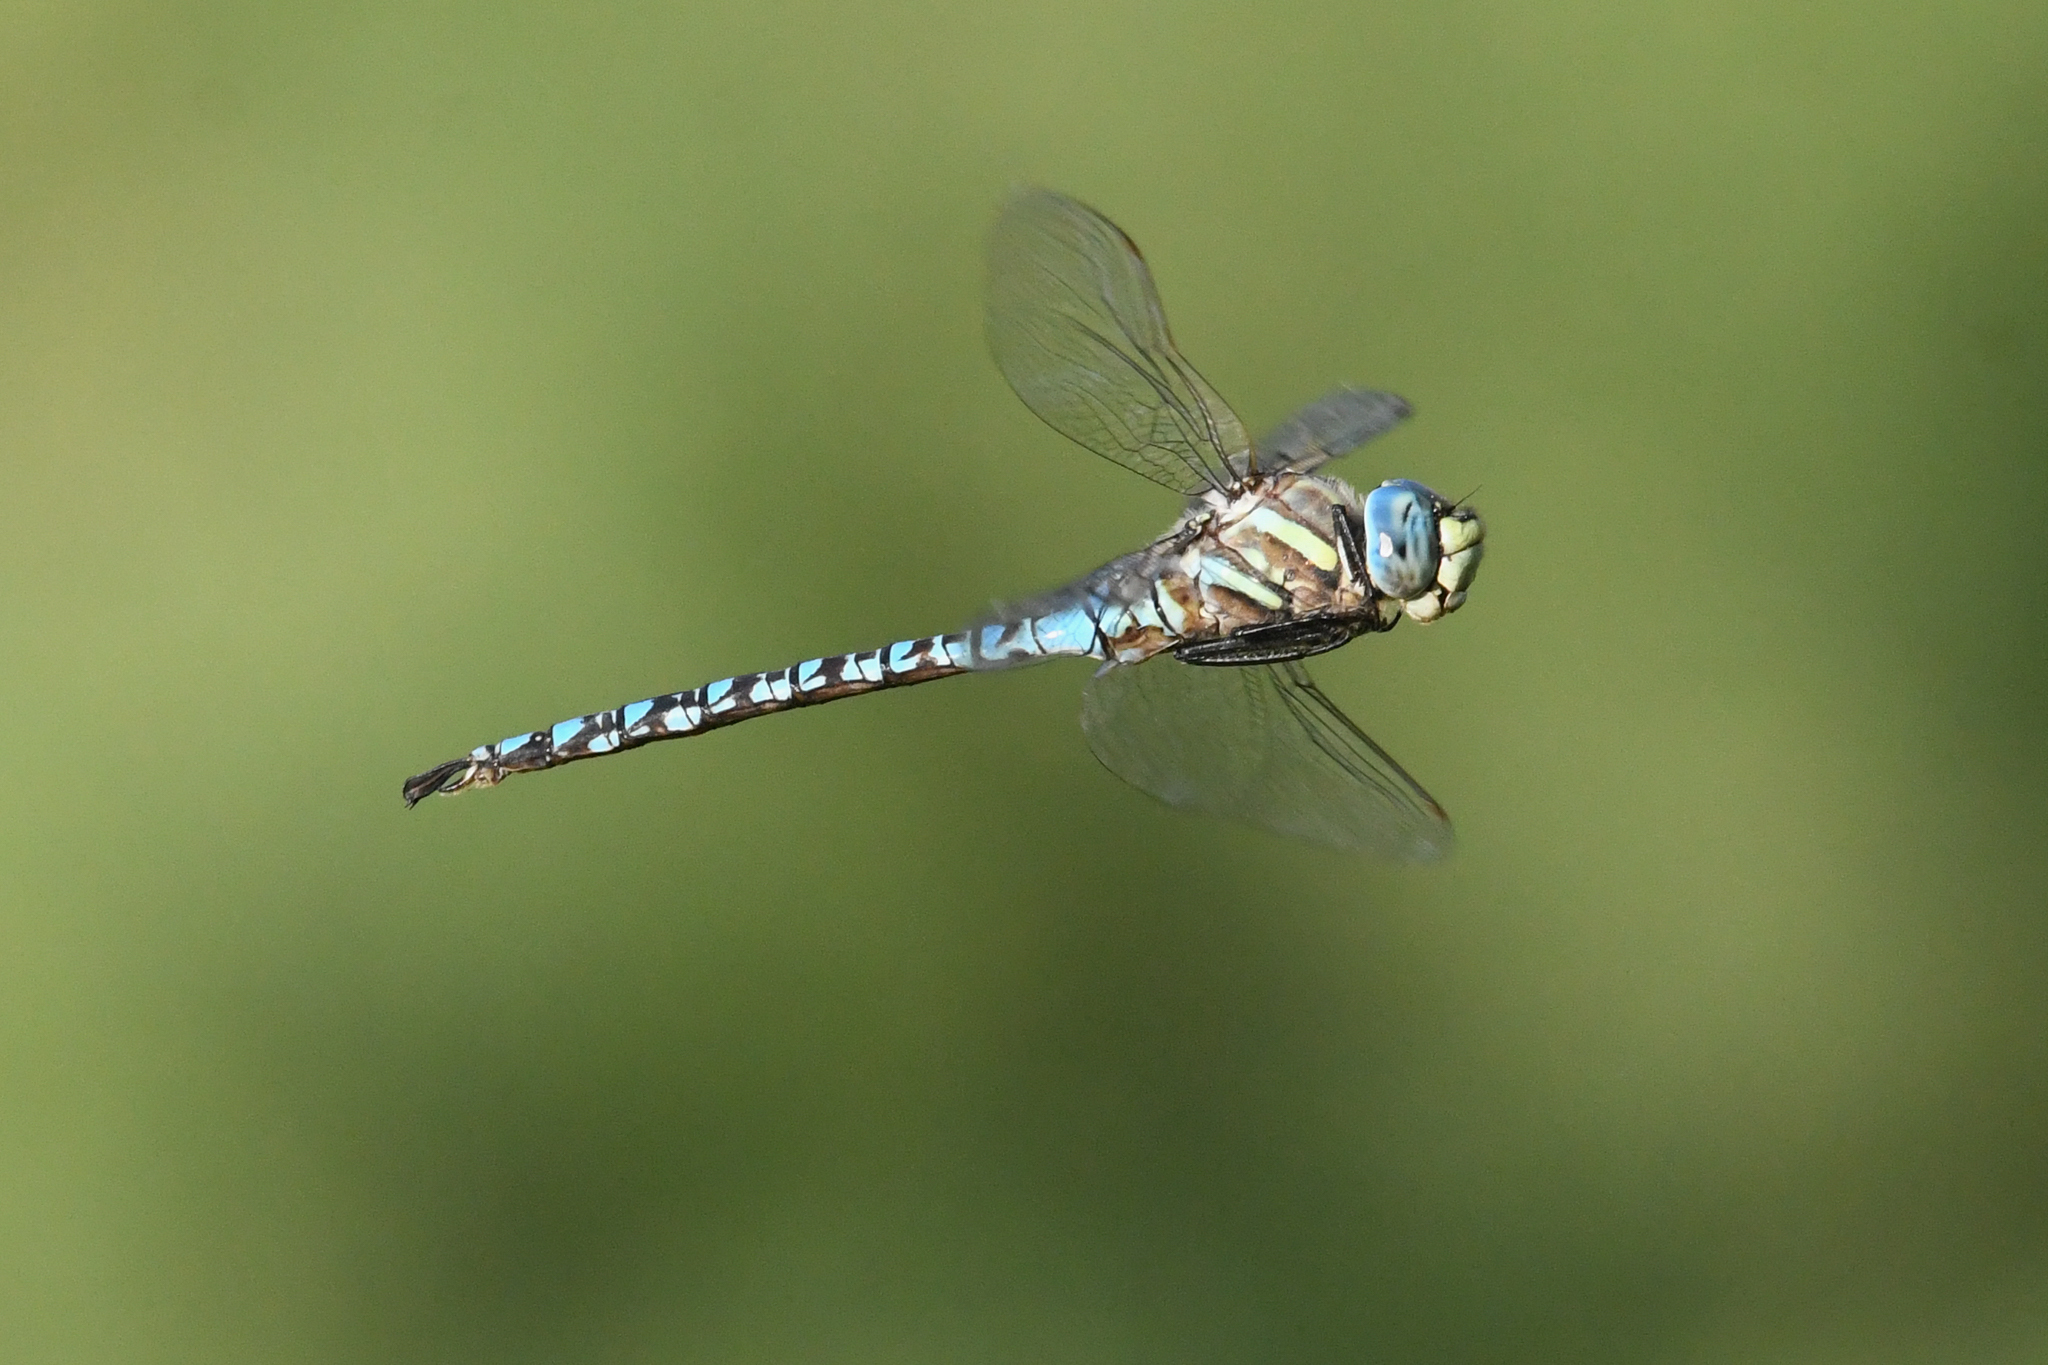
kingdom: Animalia
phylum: Arthropoda
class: Insecta
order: Odonata
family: Aeshnidae
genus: Aeshna
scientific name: Aeshna palmata
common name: Paddle-tailed darner
